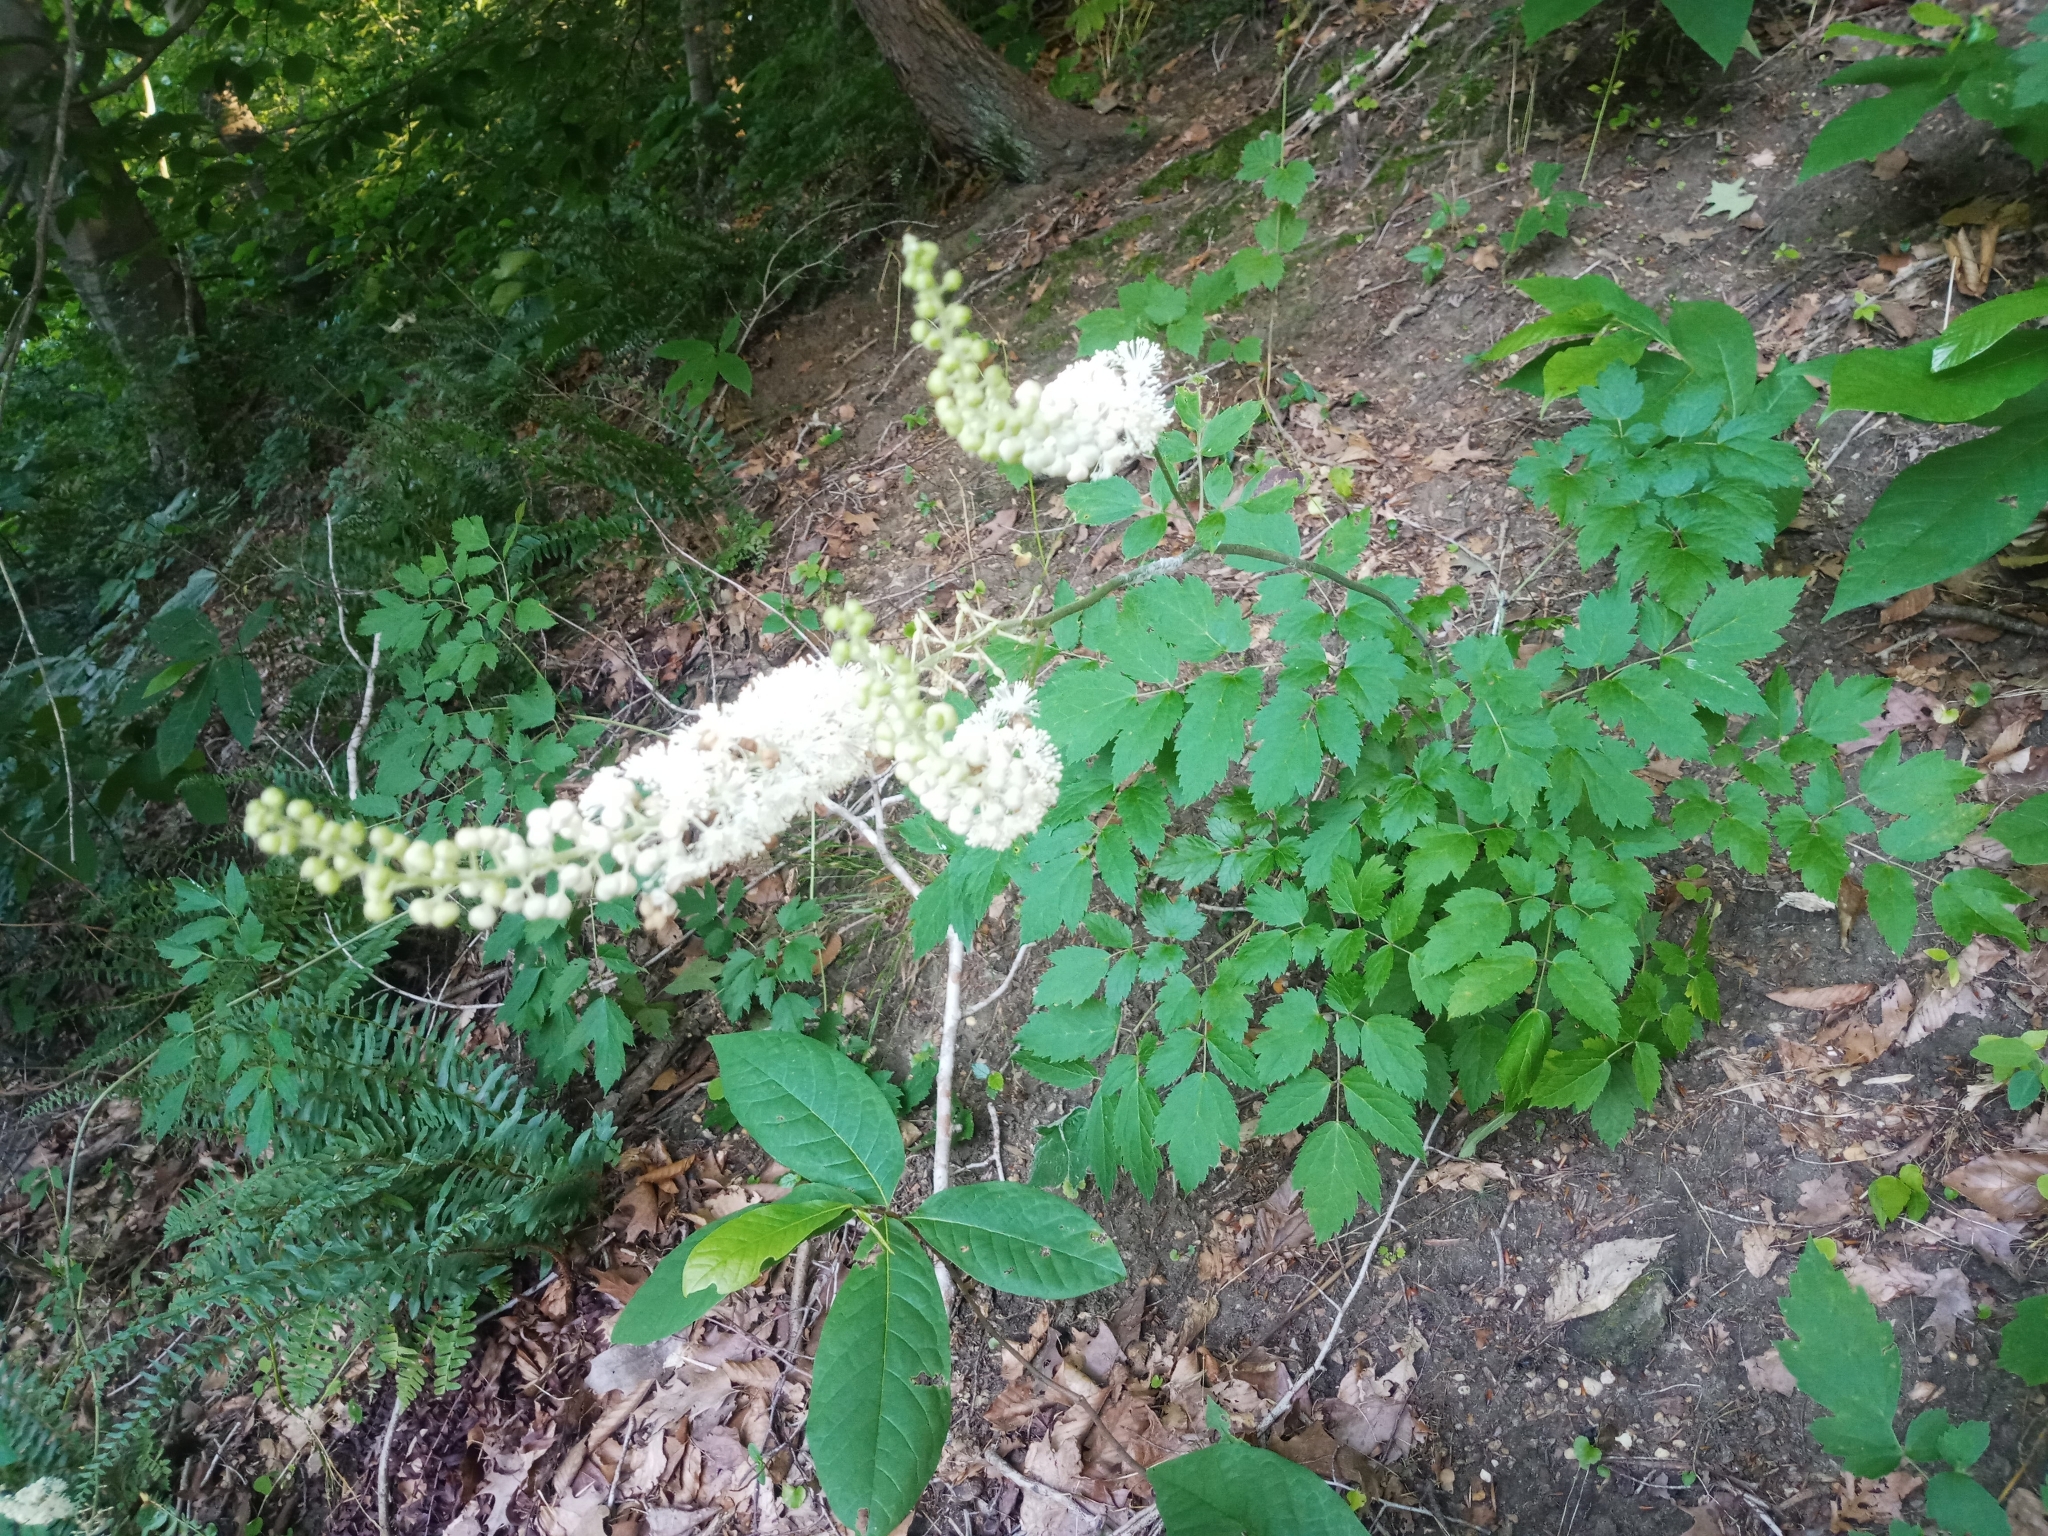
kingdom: Plantae
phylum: Tracheophyta
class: Magnoliopsida
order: Ranunculales
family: Ranunculaceae
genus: Actaea
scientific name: Actaea racemosa
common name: Black cohosh
